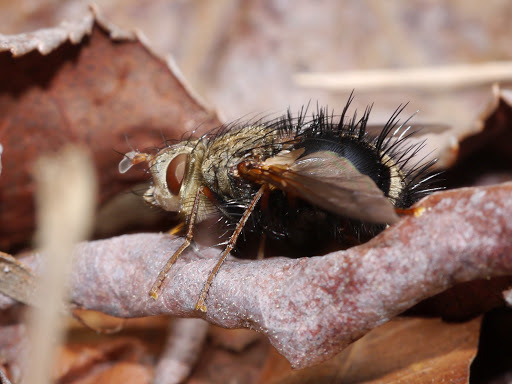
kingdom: Animalia
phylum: Arthropoda
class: Insecta
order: Diptera
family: Tachinidae
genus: Epalpus
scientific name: Epalpus signifer
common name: Early tachinid fly
